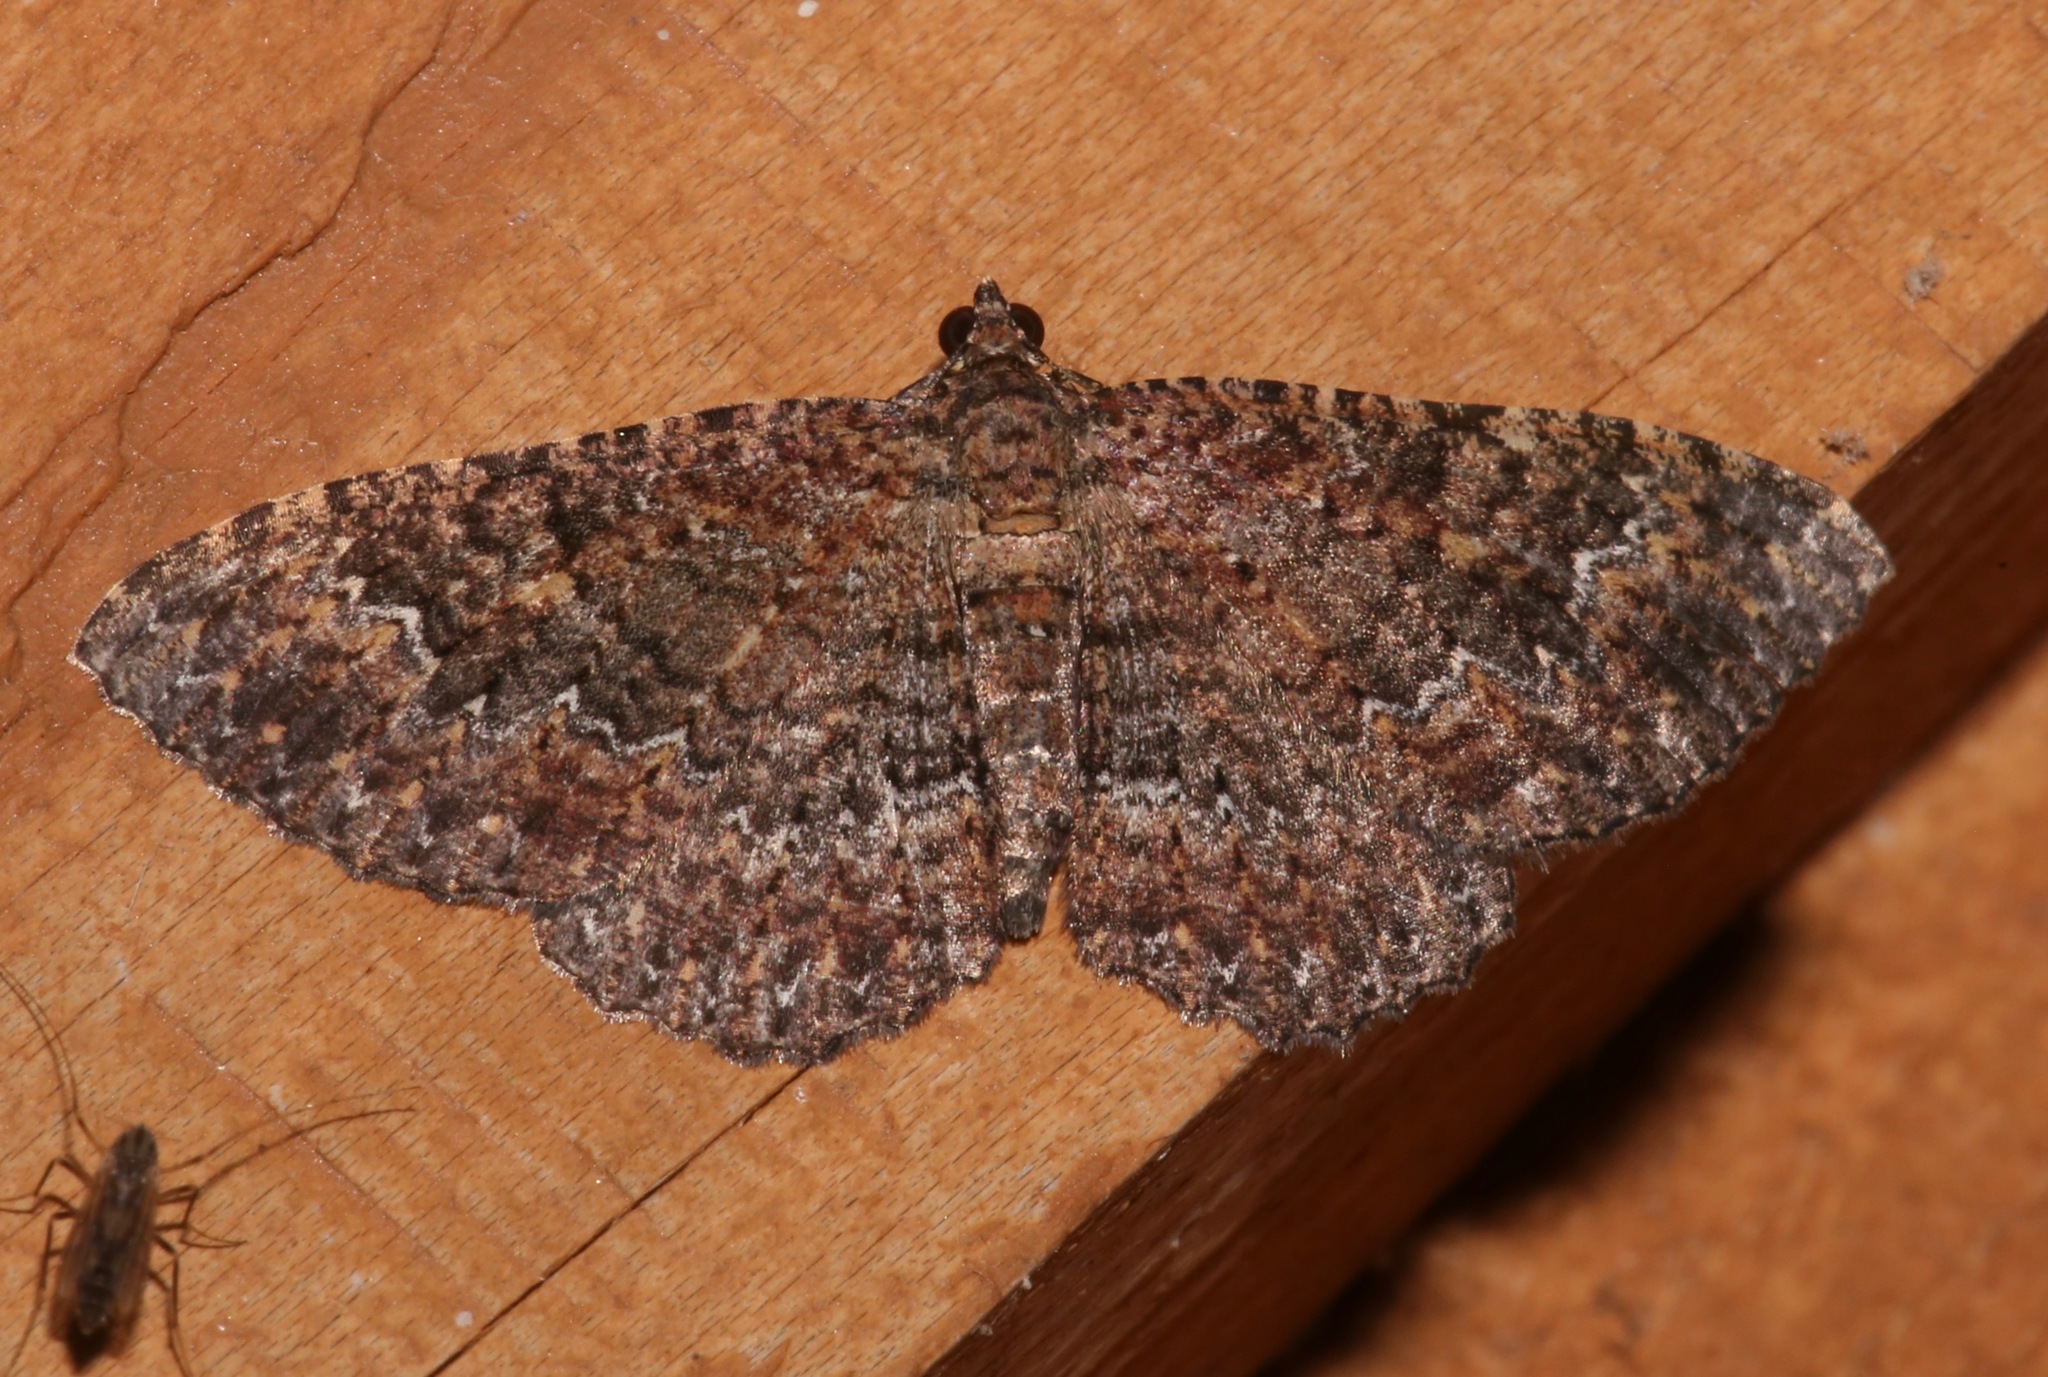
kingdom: Animalia
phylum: Arthropoda
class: Insecta
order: Lepidoptera
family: Geometridae
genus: Disclisioprocta
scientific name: Disclisioprocta stellata
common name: Somber carpet
